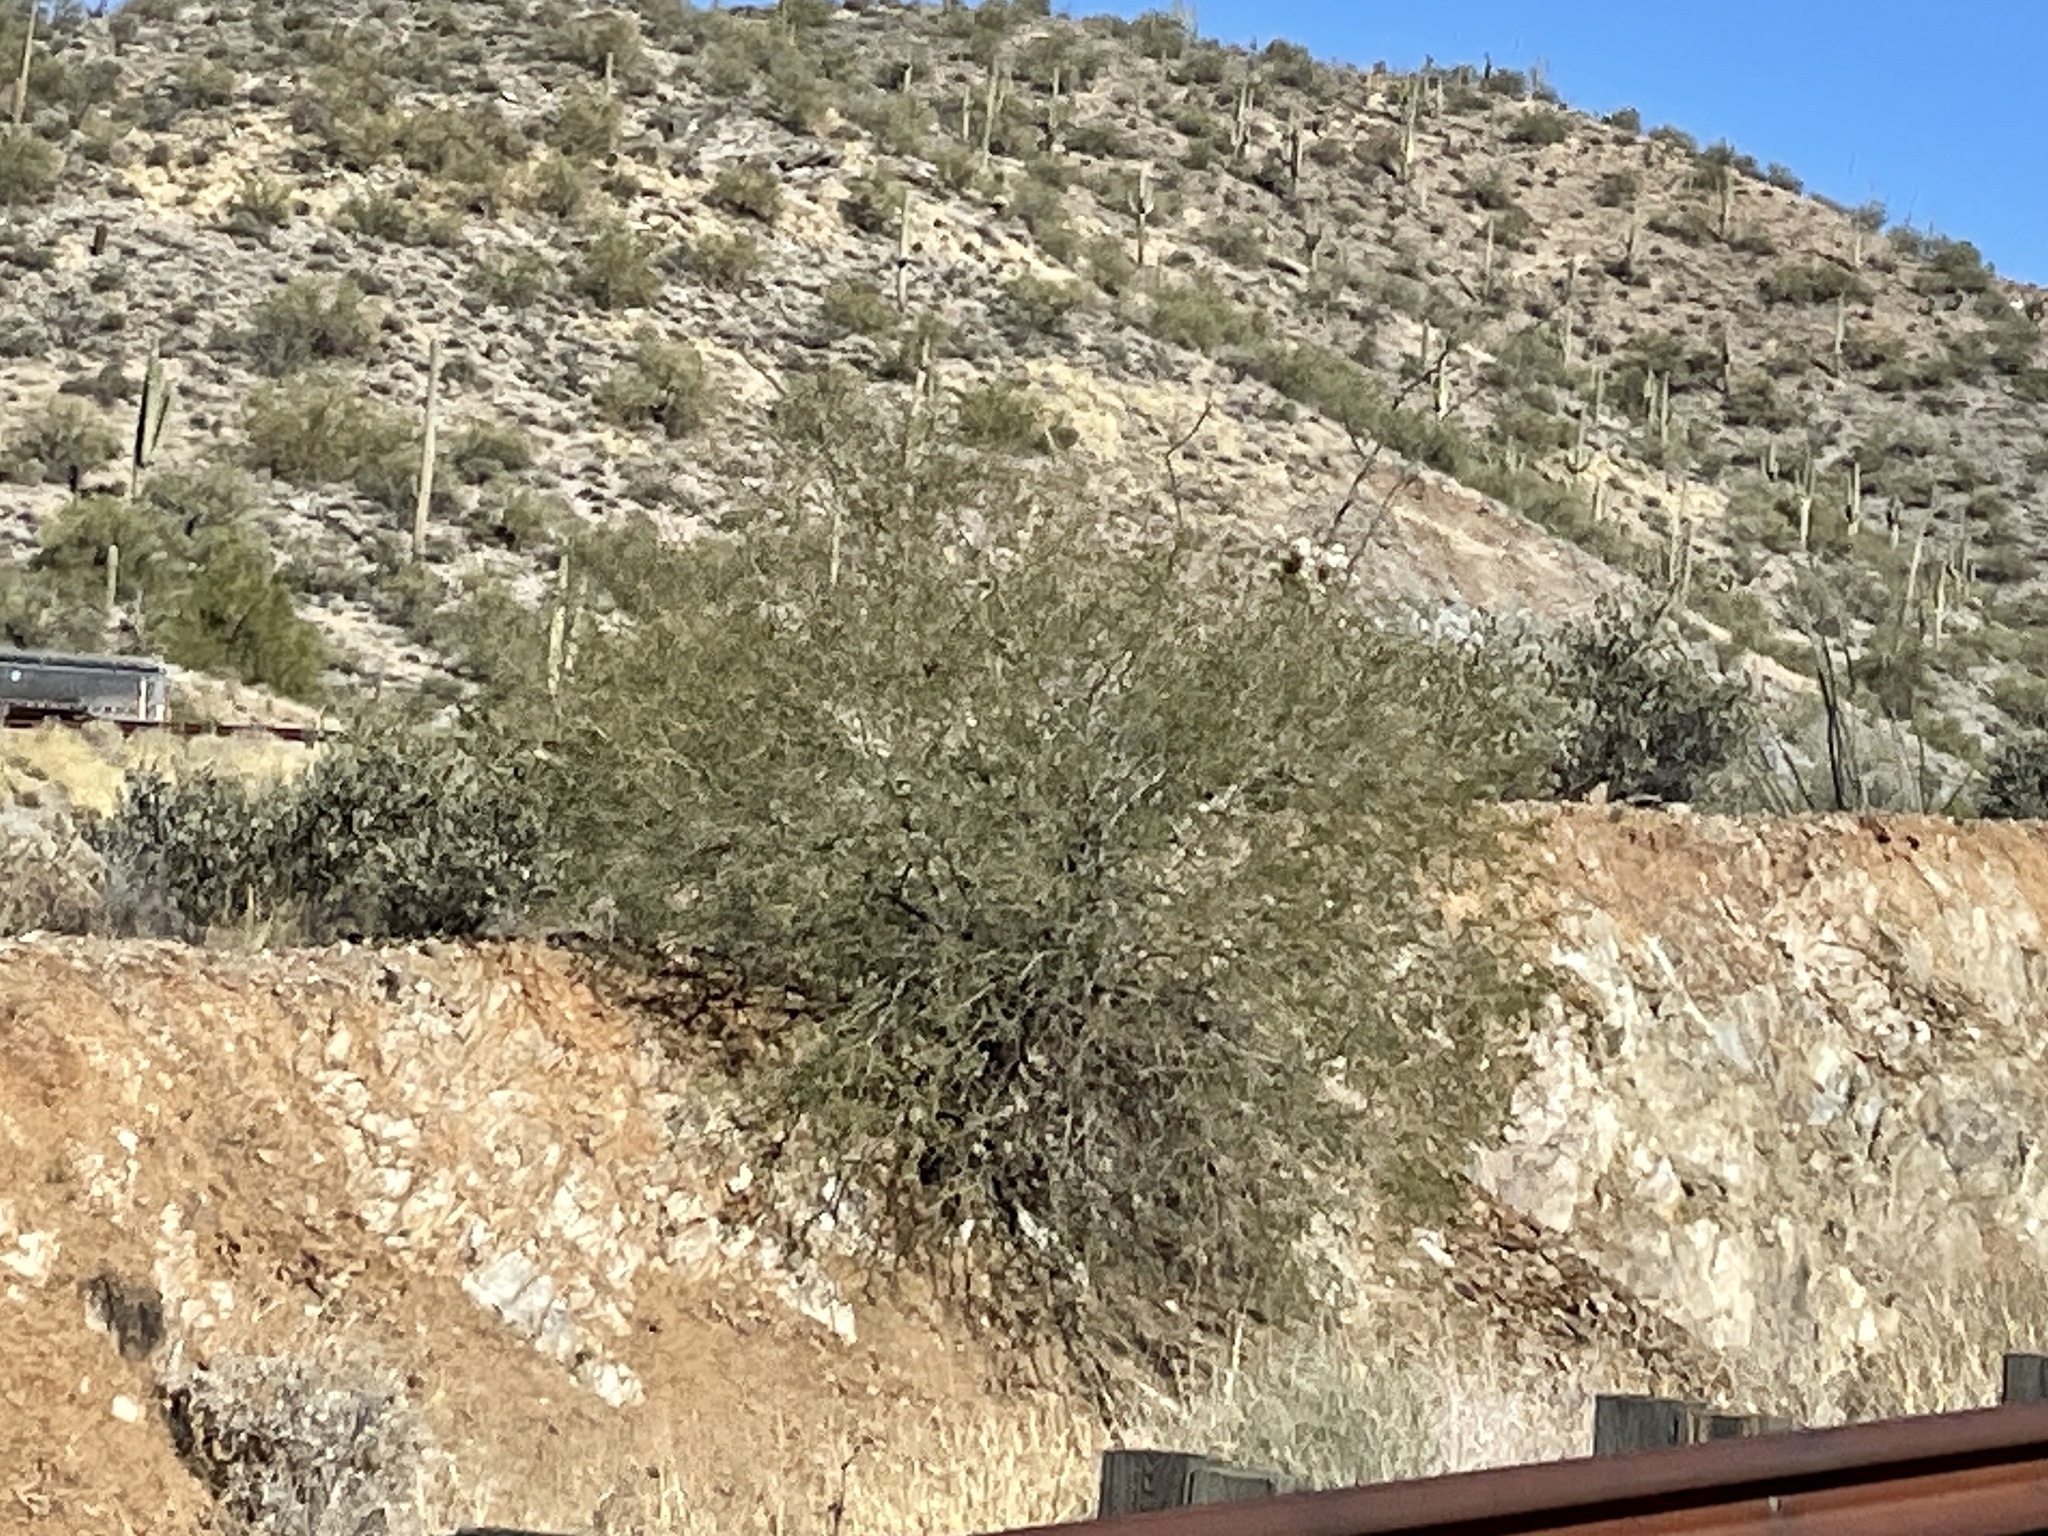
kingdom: Plantae
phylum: Tracheophyta
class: Magnoliopsida
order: Zygophyllales
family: Zygophyllaceae
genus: Larrea
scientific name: Larrea tridentata
